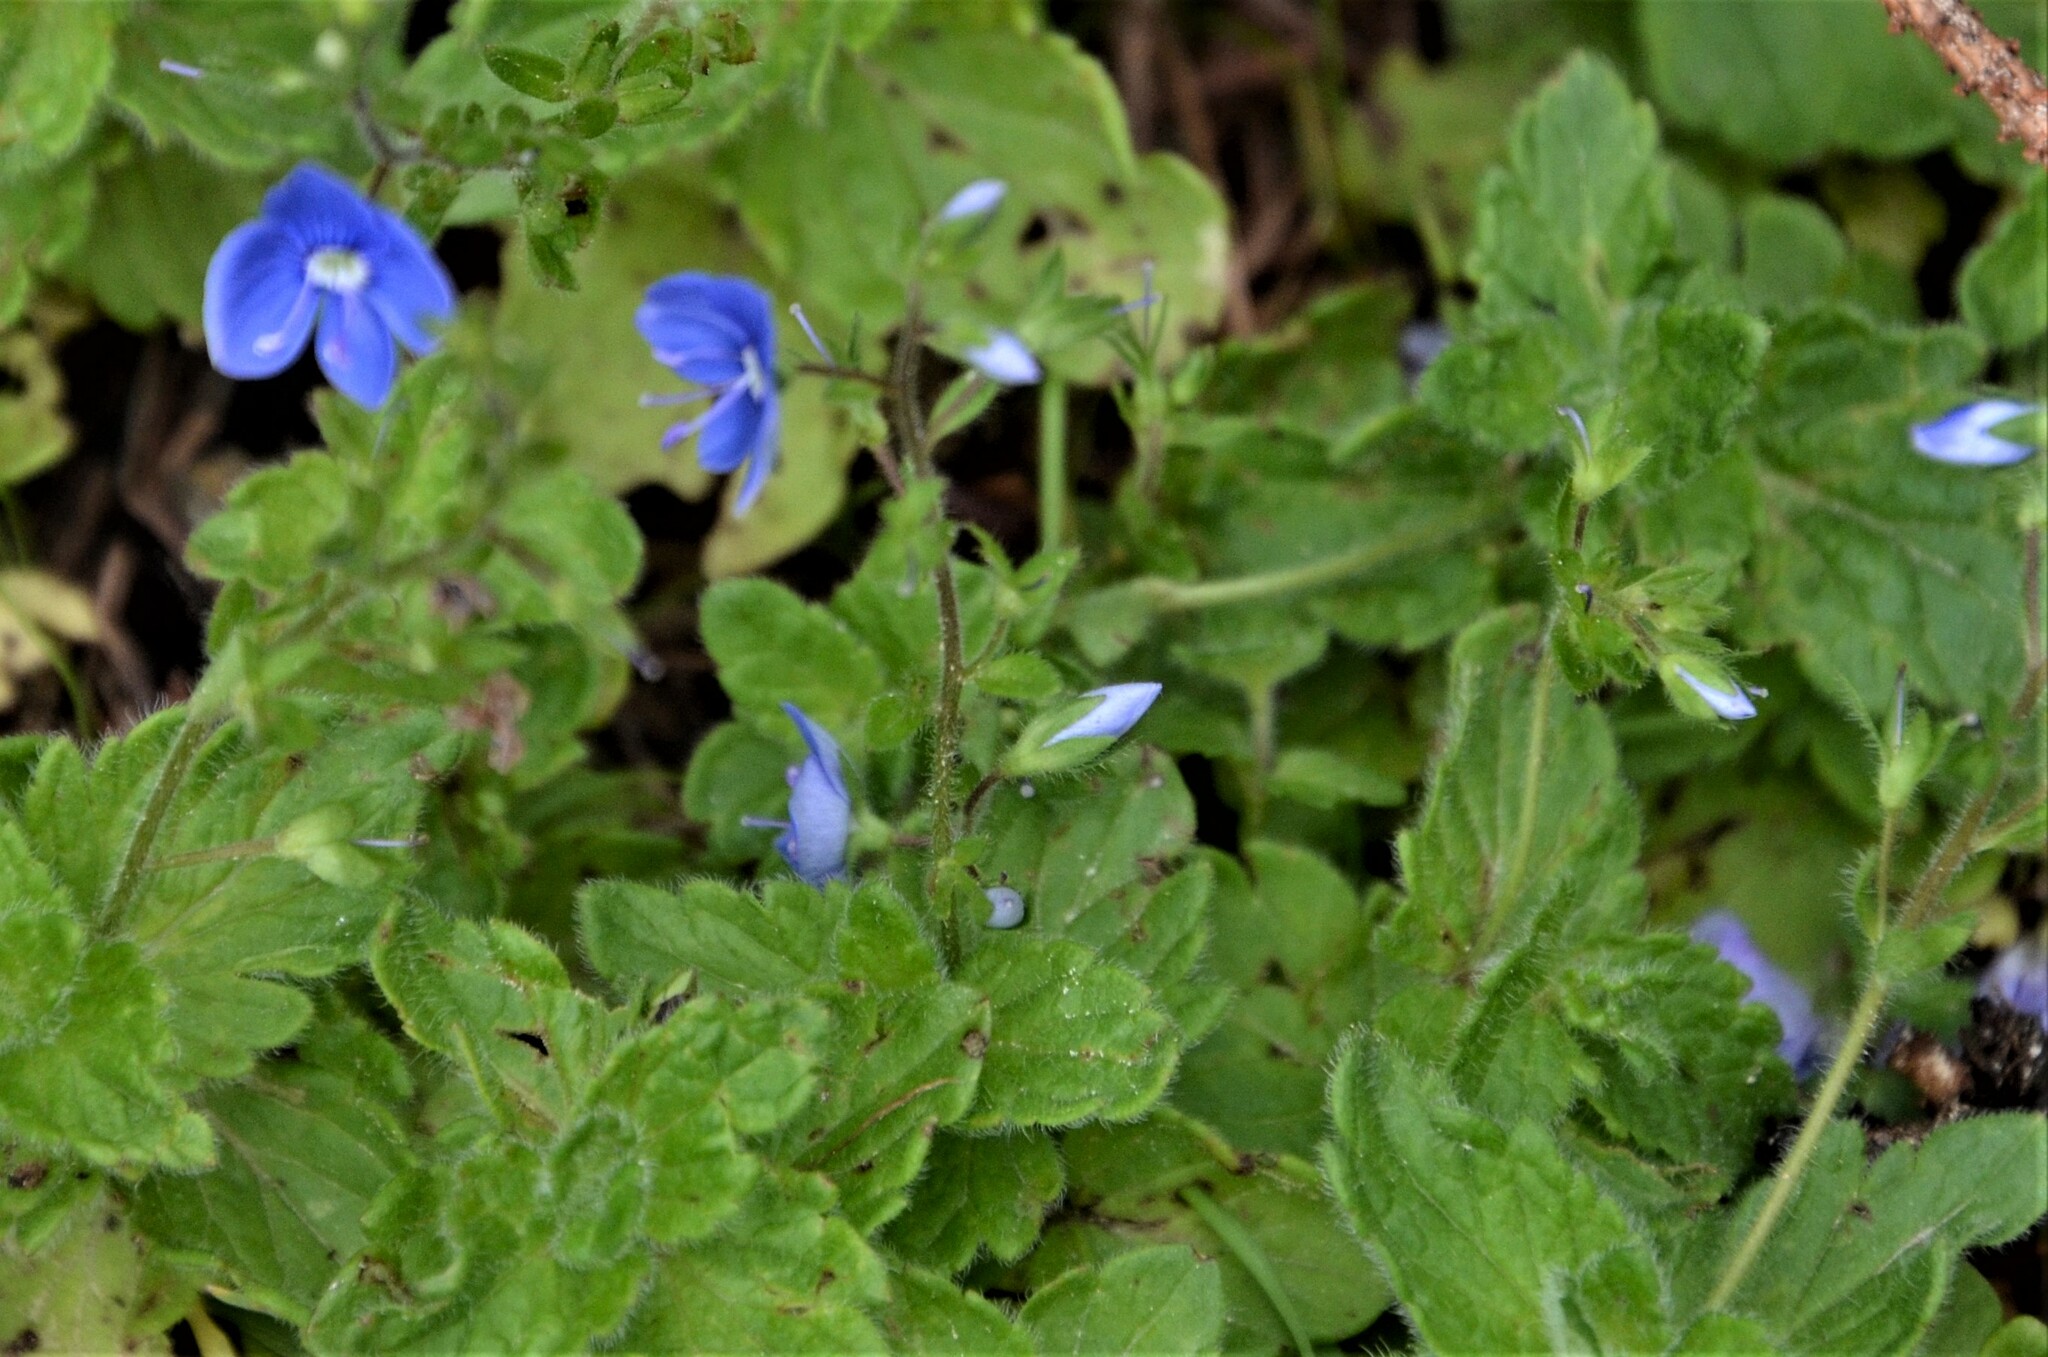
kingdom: Plantae
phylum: Tracheophyta
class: Magnoliopsida
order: Lamiales
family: Plantaginaceae
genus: Veronica
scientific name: Veronica chamaedrys
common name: Germander speedwell
